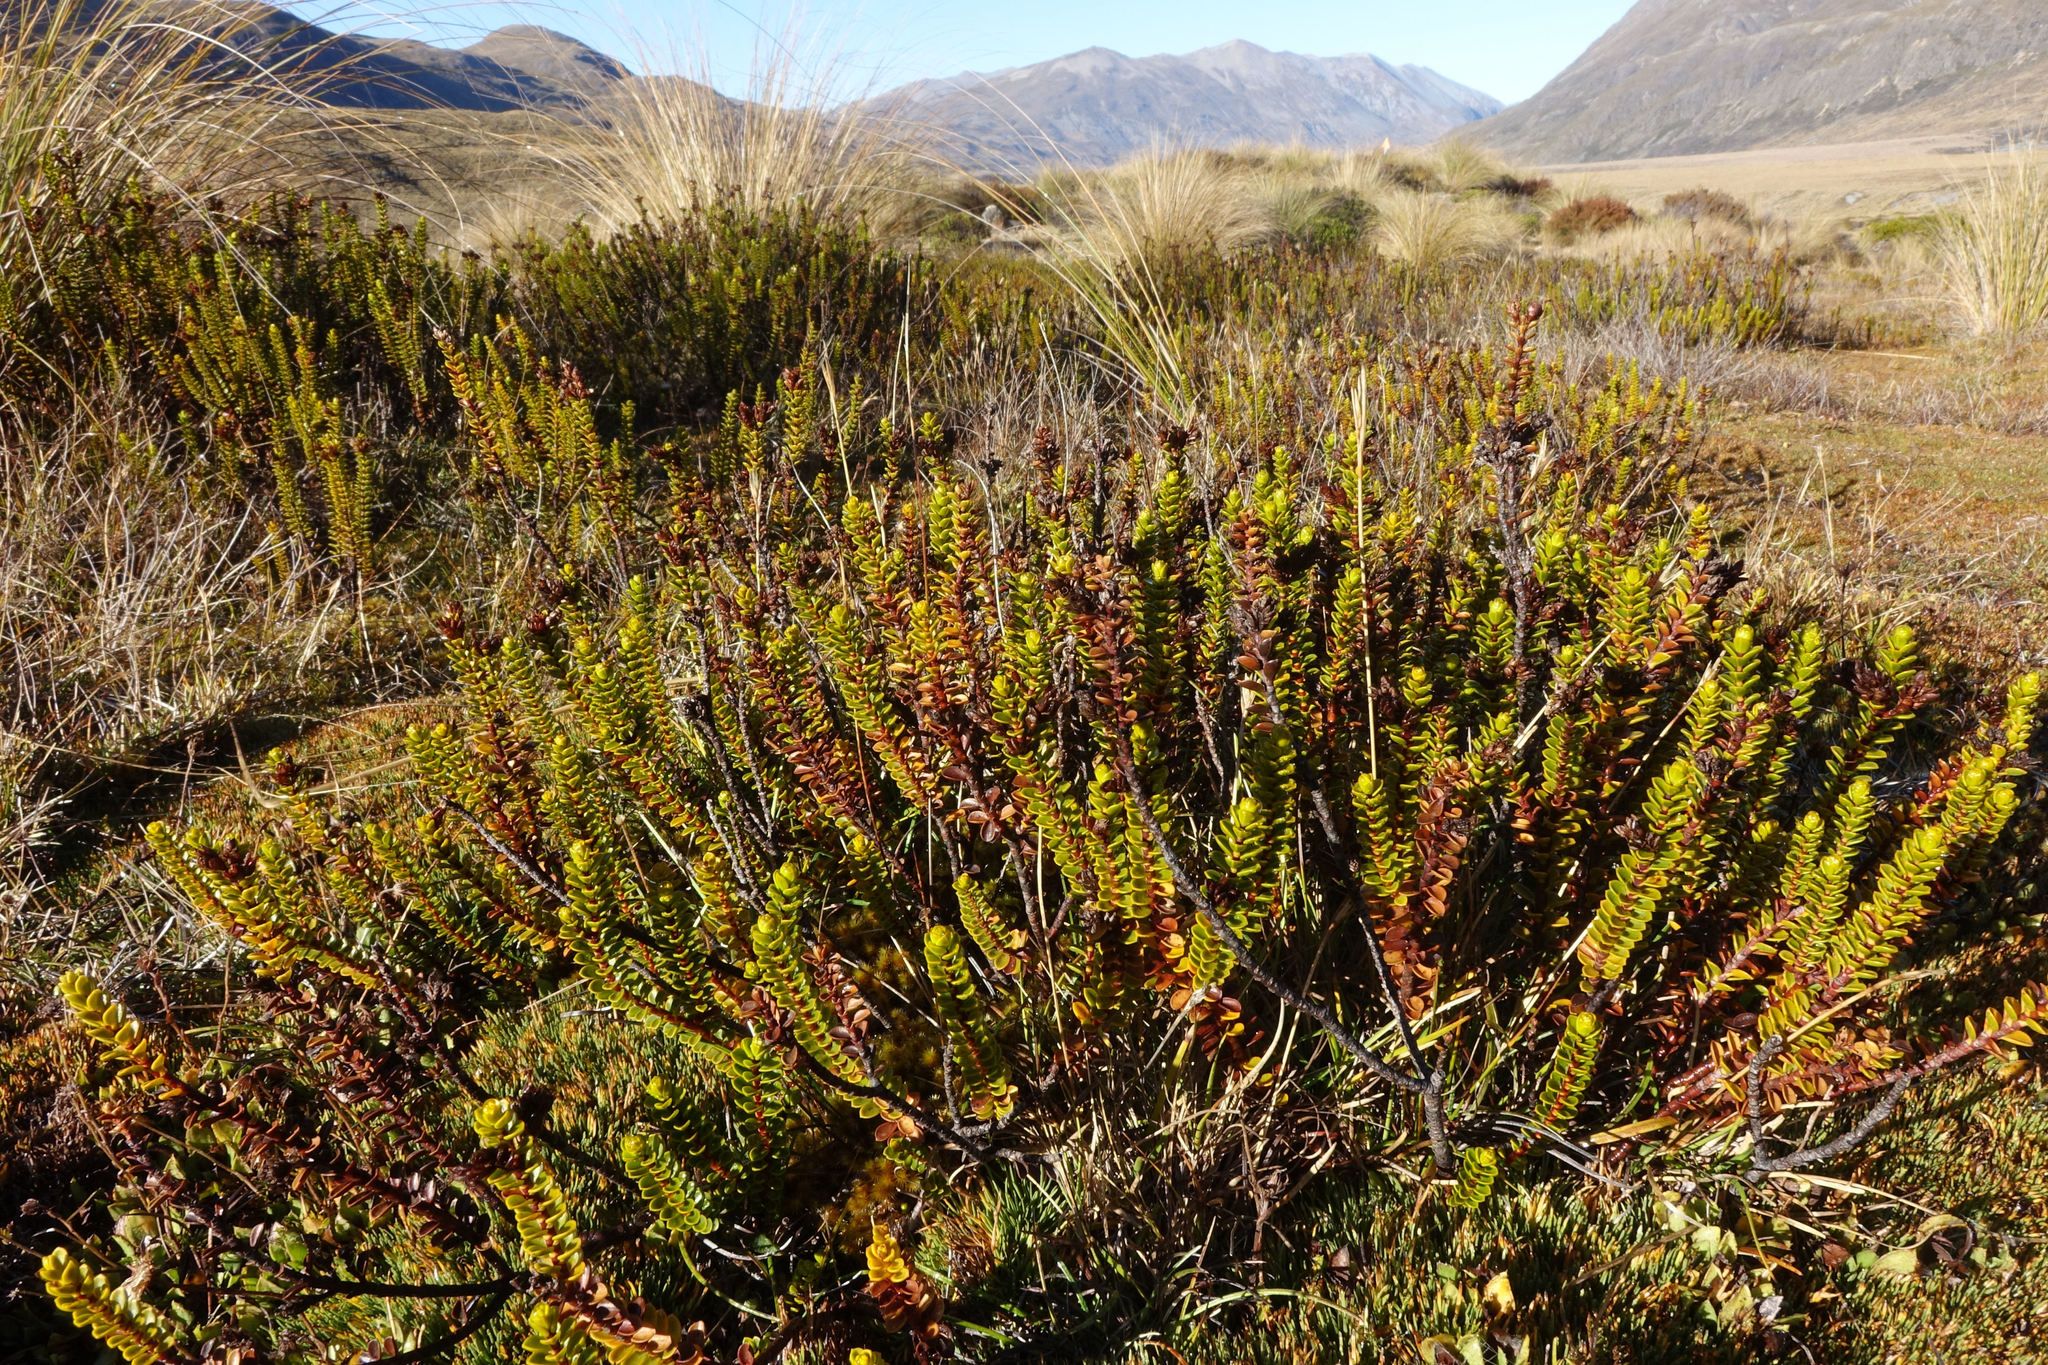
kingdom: Plantae
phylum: Tracheophyta
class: Magnoliopsida
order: Lamiales
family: Plantaginaceae
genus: Veronica
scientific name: Veronica pauciramosa
